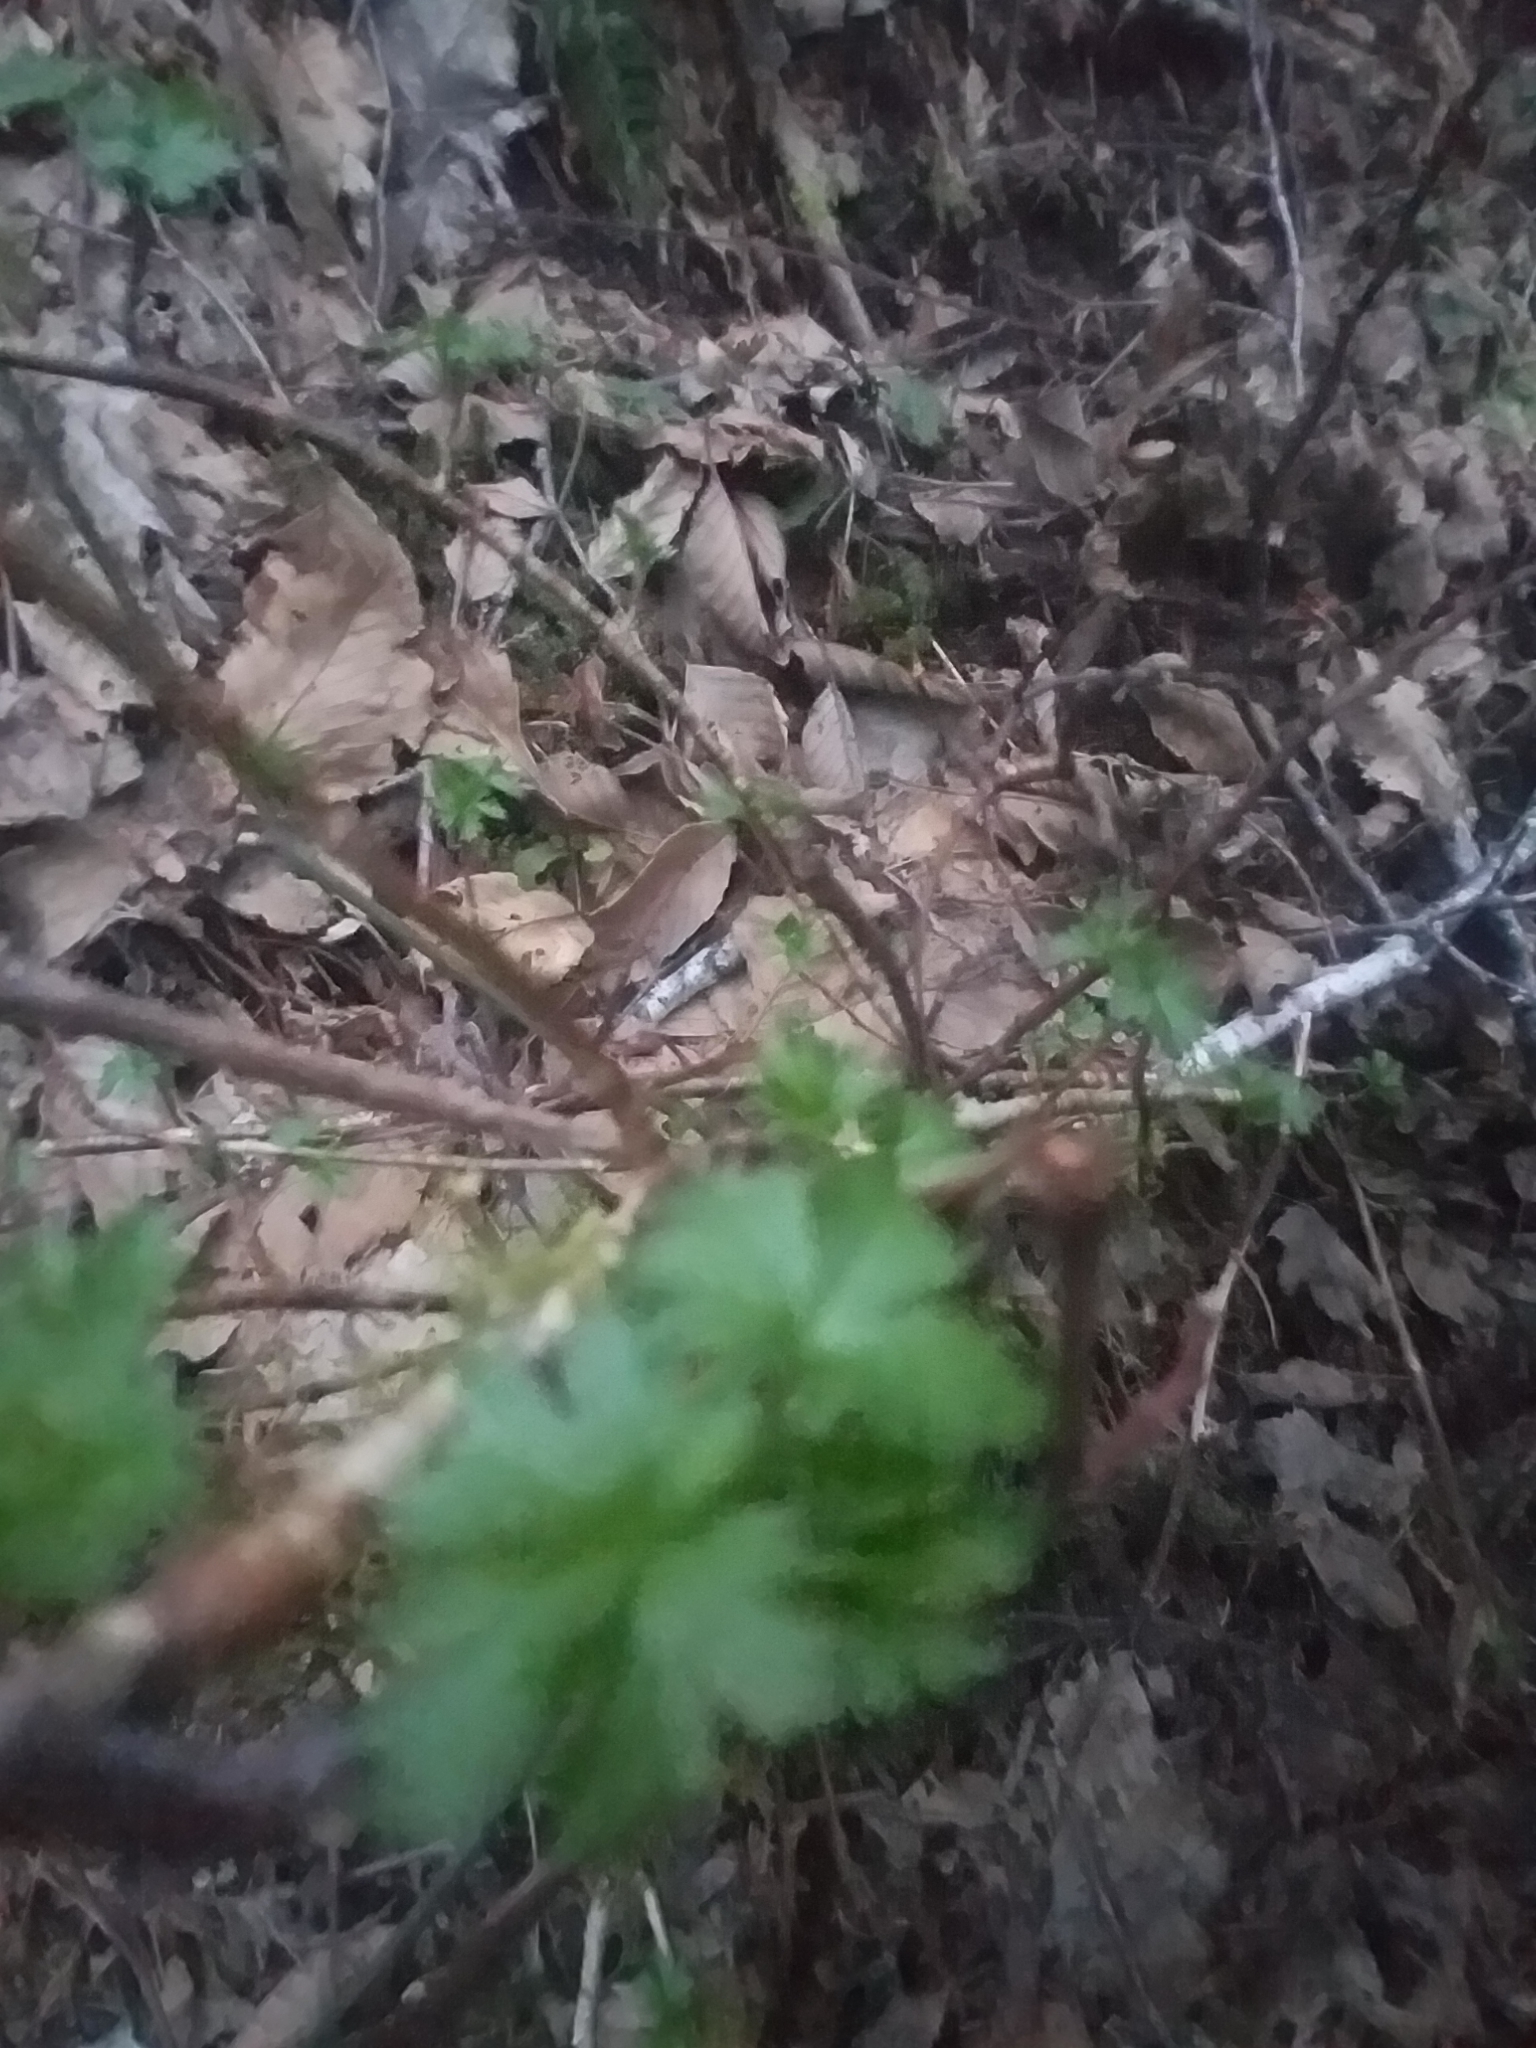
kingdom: Plantae
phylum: Tracheophyta
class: Magnoliopsida
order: Saxifragales
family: Grossulariaceae
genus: Ribes
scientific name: Ribes lacustre
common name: Black gooseberry
